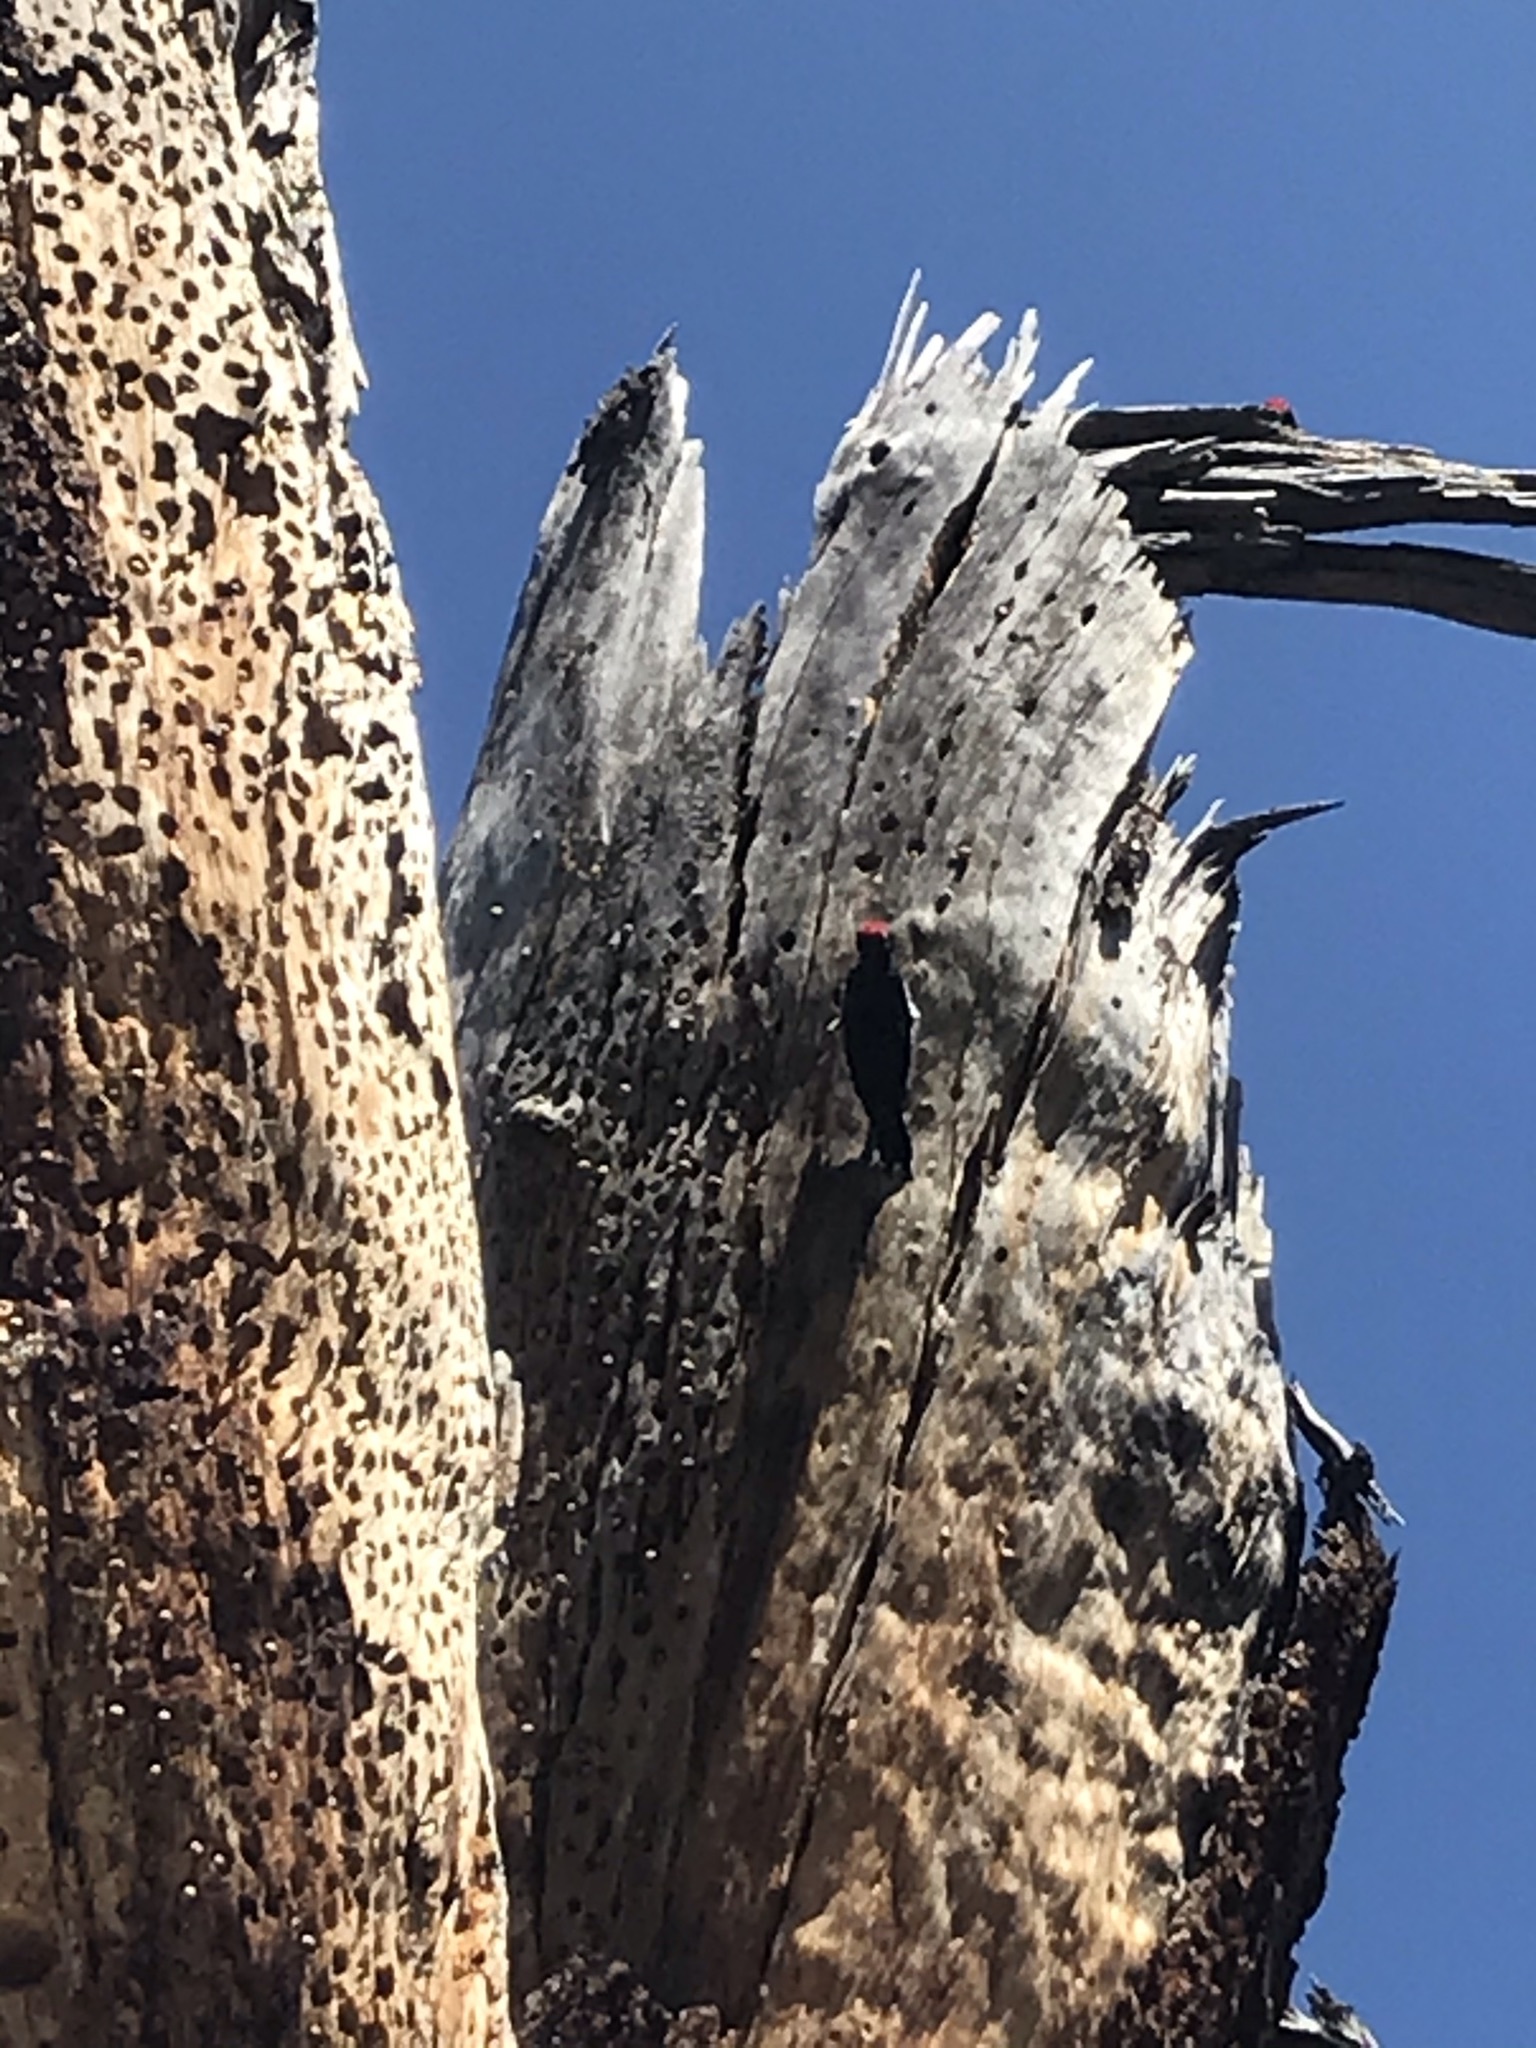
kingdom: Animalia
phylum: Chordata
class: Aves
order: Piciformes
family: Picidae
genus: Melanerpes
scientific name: Melanerpes formicivorus
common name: Acorn woodpecker
